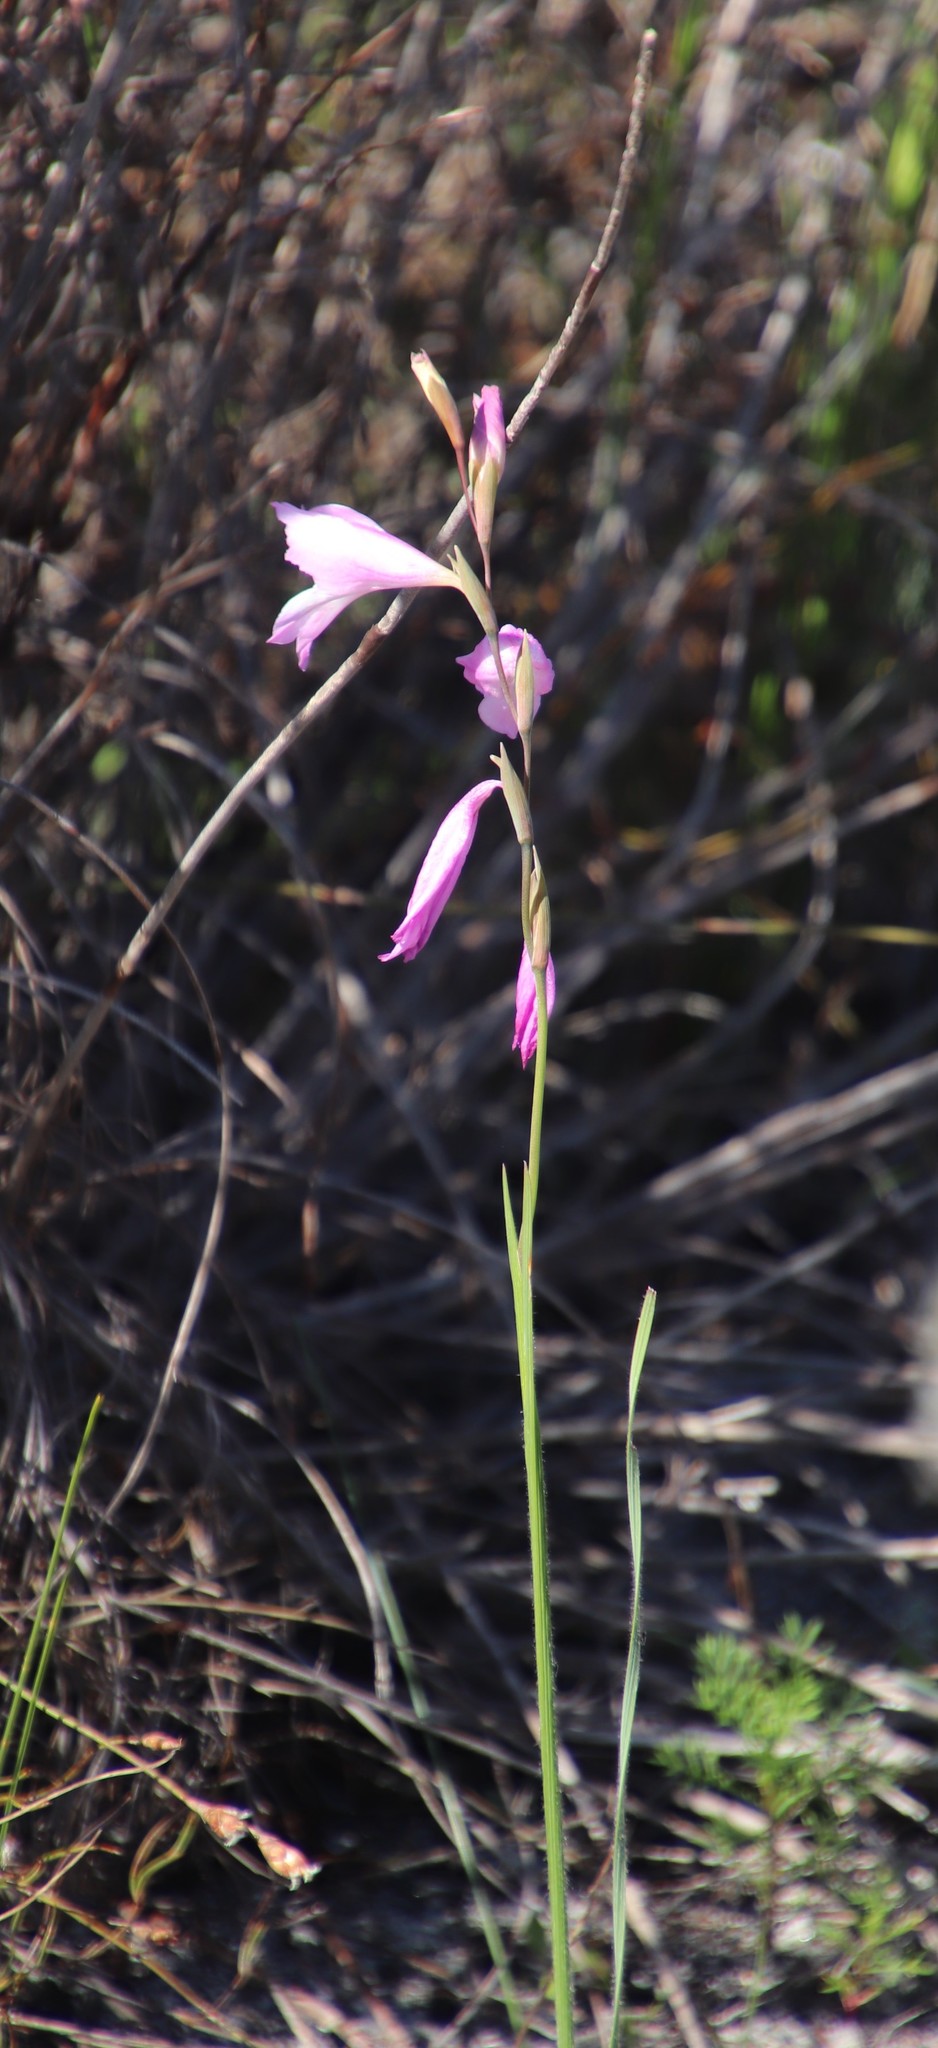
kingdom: Plantae
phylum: Tracheophyta
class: Liliopsida
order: Asparagales
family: Iridaceae
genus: Gladiolus
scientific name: Gladiolus hirsutus
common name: Small pink afrikaner
